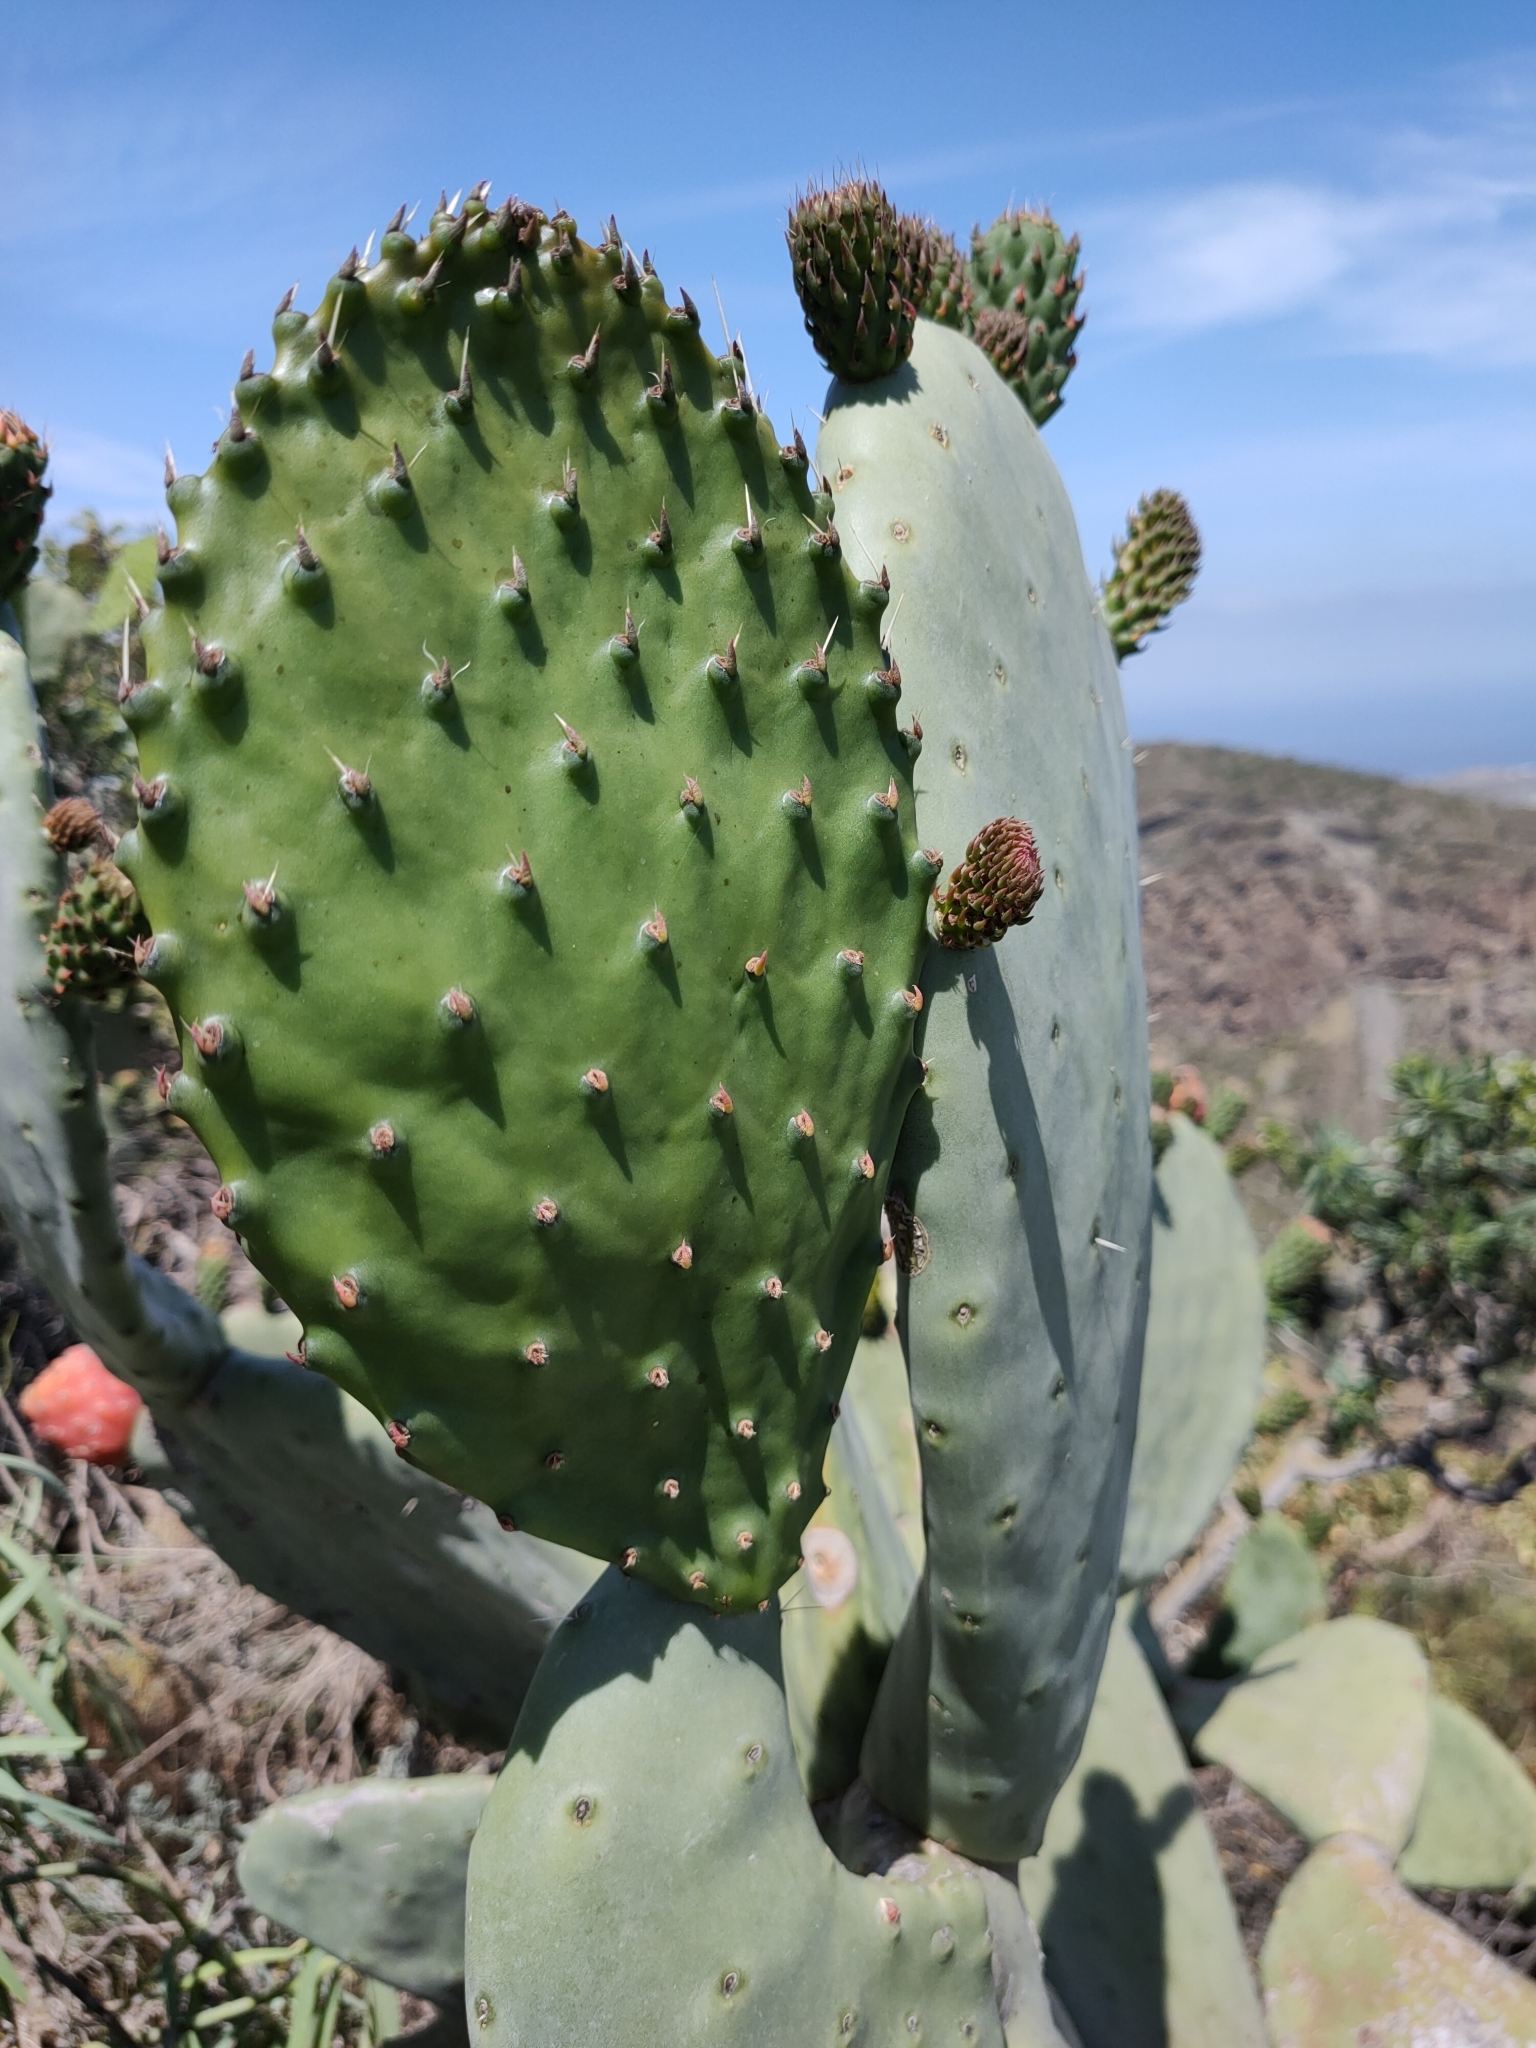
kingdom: Plantae
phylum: Tracheophyta
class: Magnoliopsida
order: Caryophyllales
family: Cactaceae
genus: Opuntia
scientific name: Opuntia ficus-indica
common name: Barbary fig
